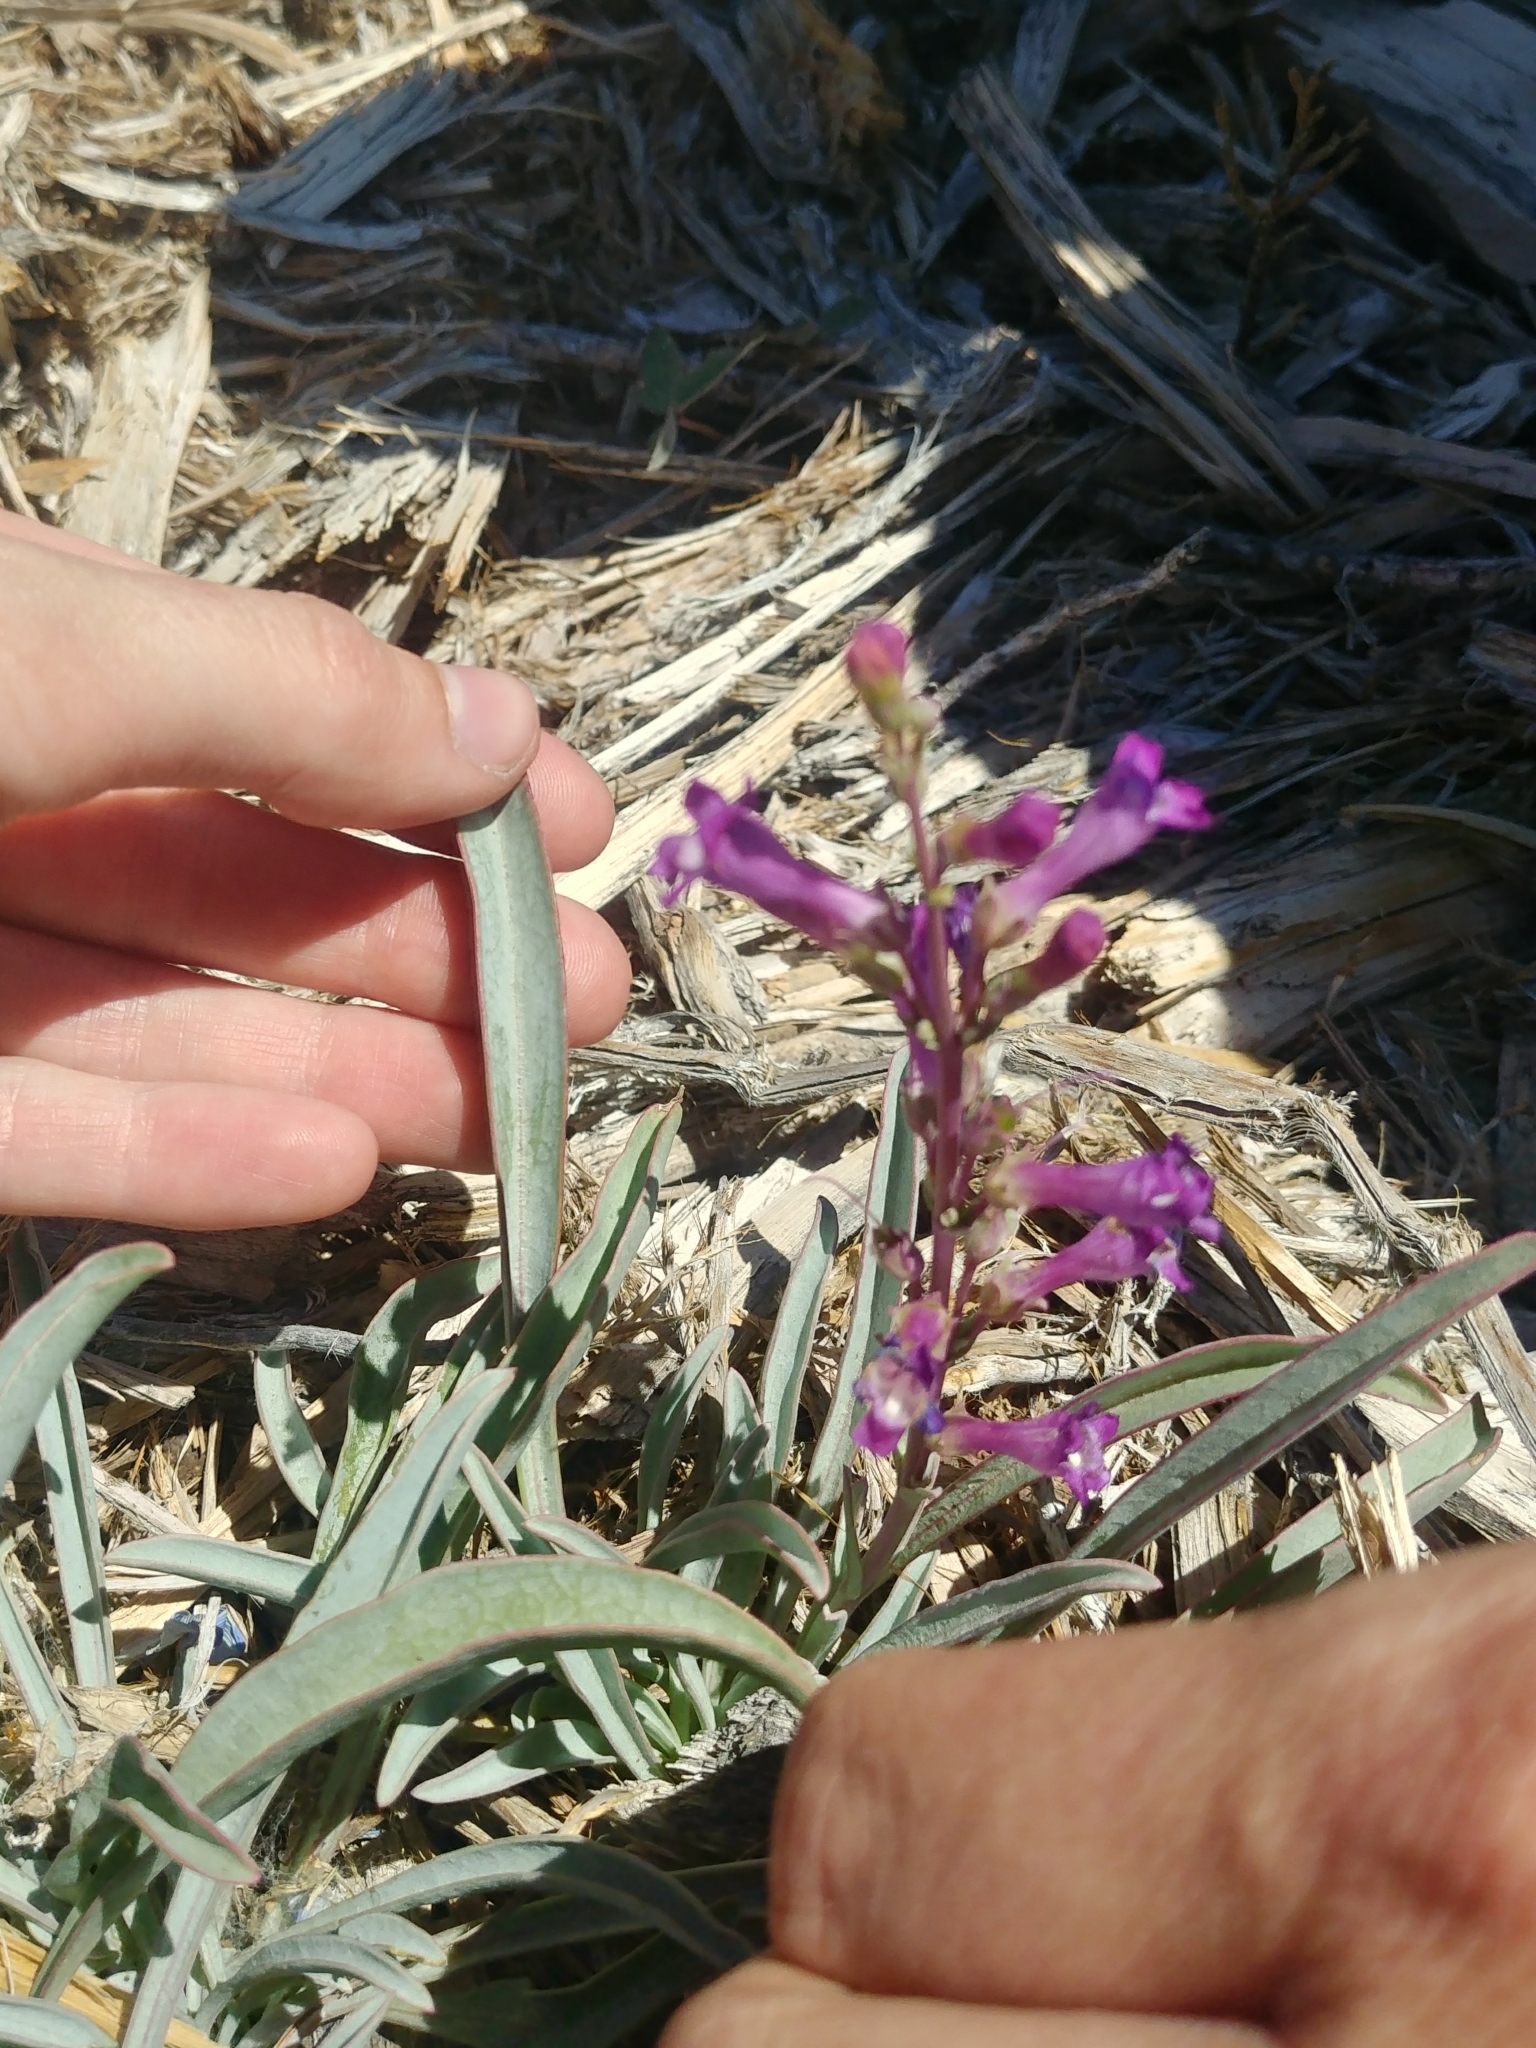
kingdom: Plantae
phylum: Tracheophyta
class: Magnoliopsida
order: Lamiales
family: Plantaginaceae
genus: Penstemon
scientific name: Penstemon confusus
